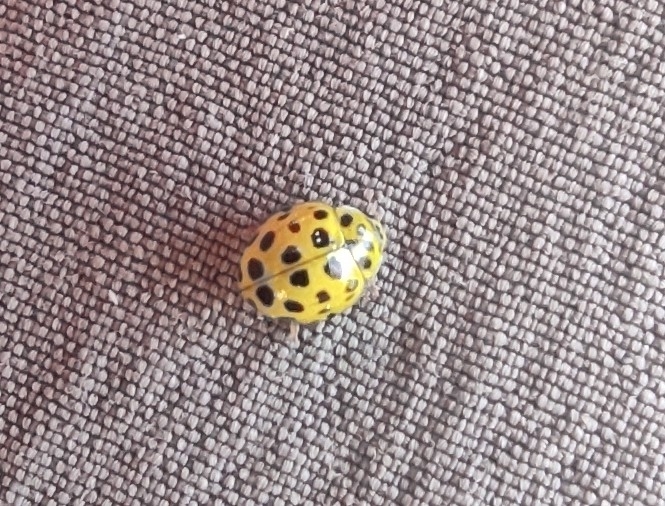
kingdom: Animalia
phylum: Arthropoda
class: Insecta
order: Coleoptera
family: Coccinellidae
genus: Psyllobora
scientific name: Psyllobora vigintiduopunctata
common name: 22-spot ladybird
